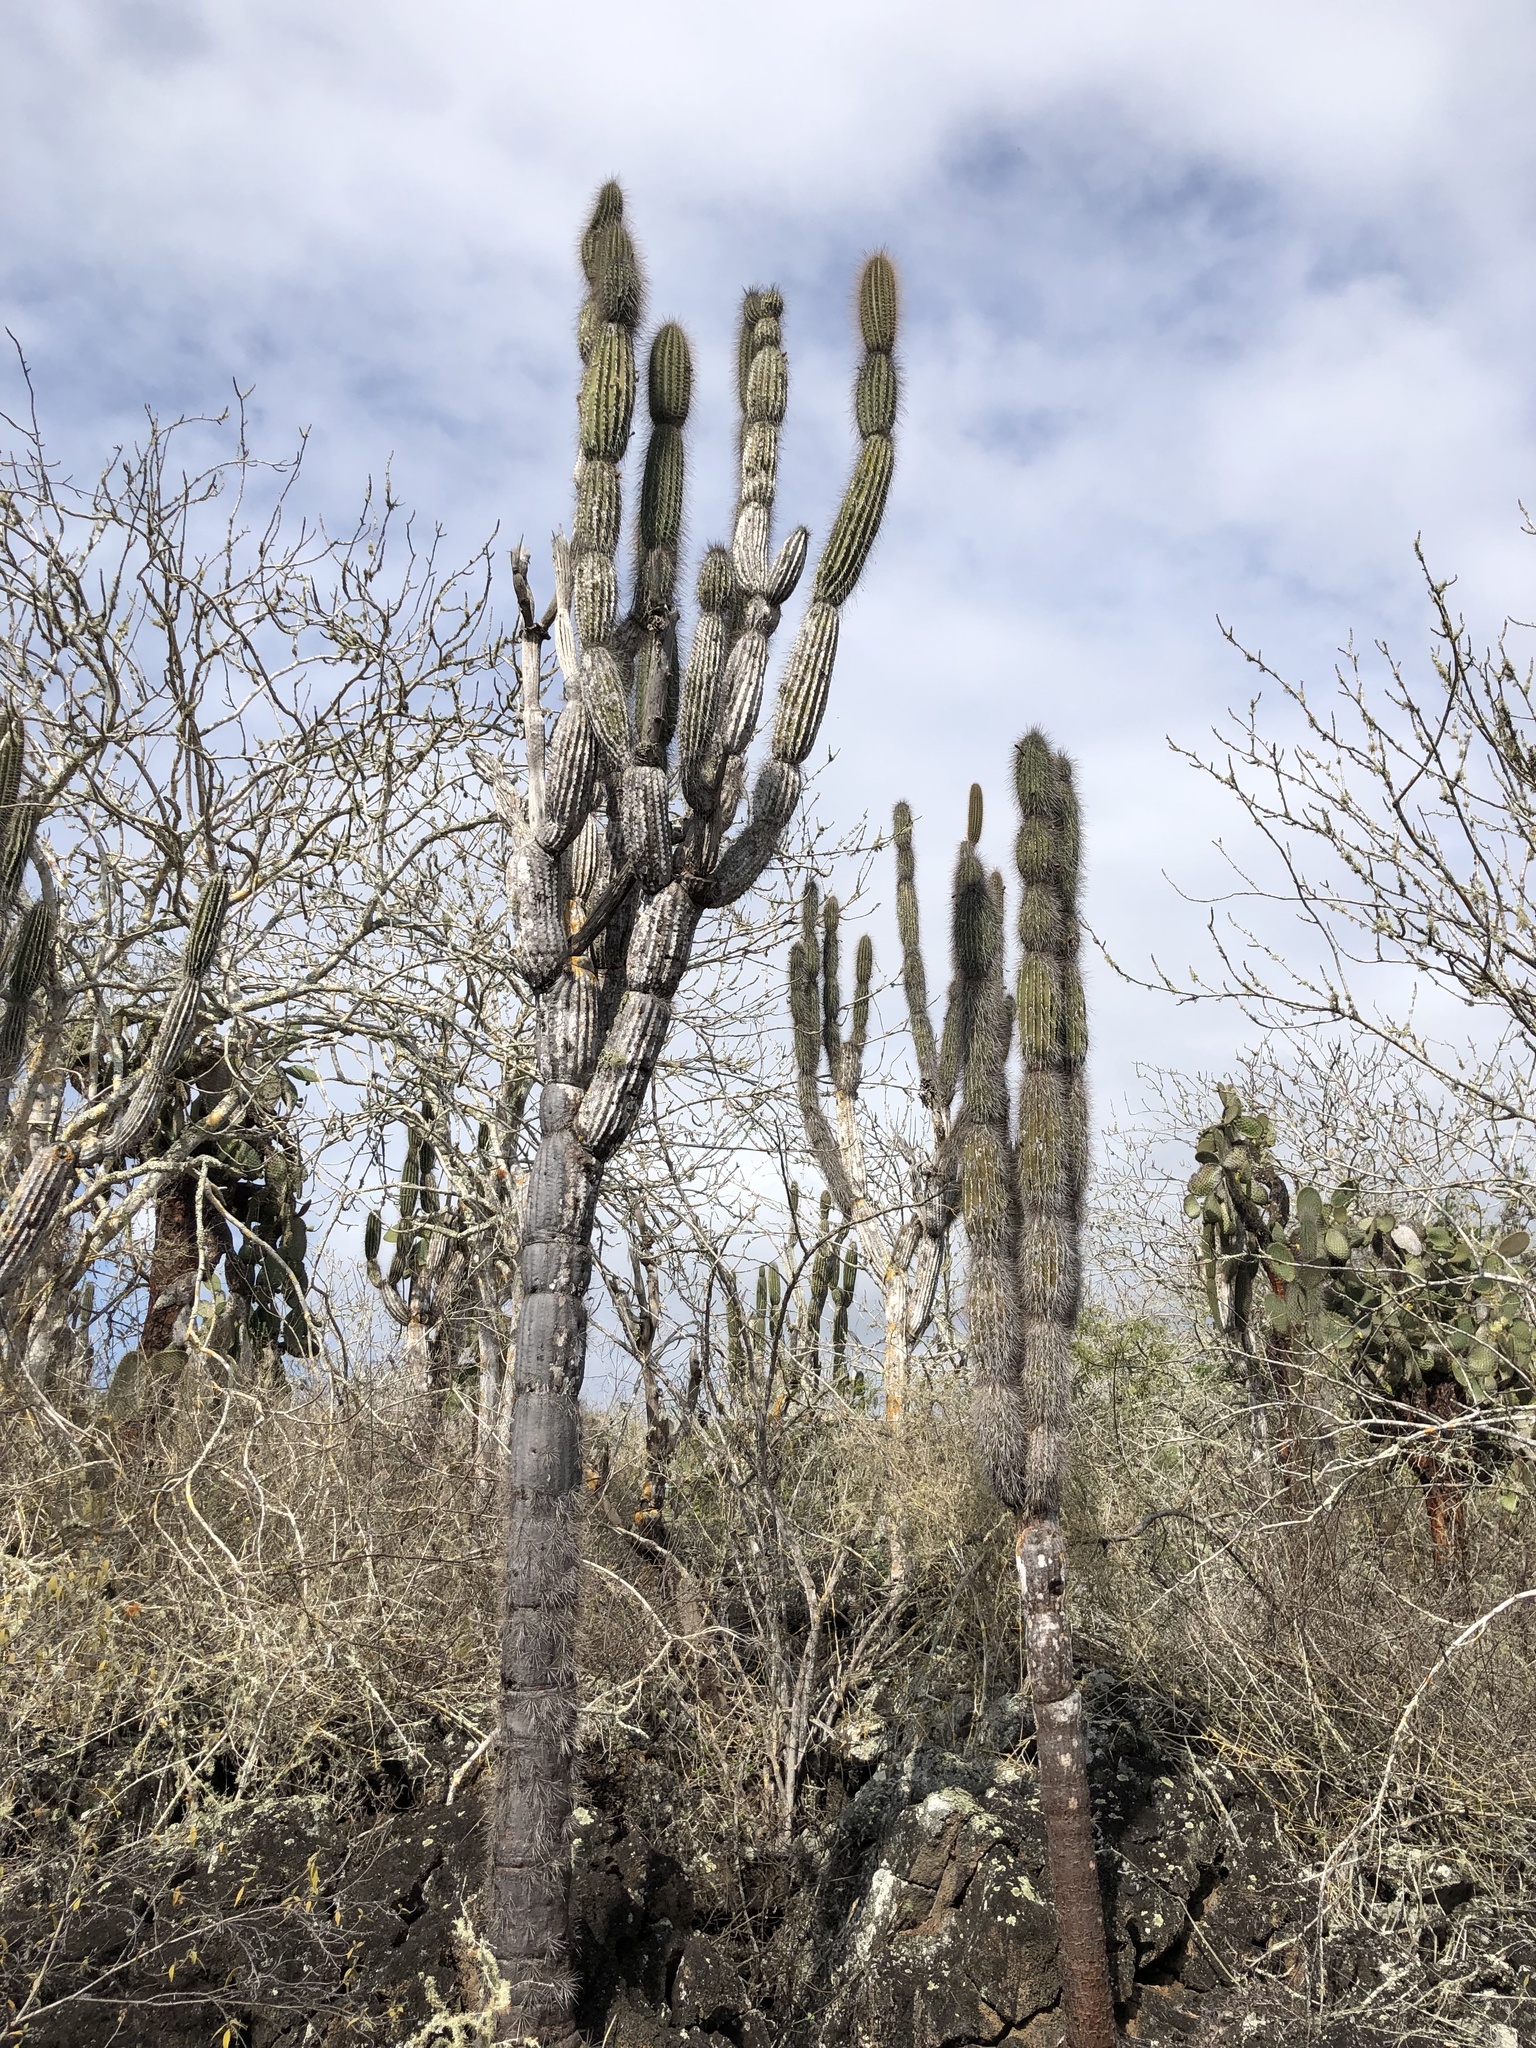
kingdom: Plantae
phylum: Tracheophyta
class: Magnoliopsida
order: Caryophyllales
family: Cactaceae
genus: Jasminocereus
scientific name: Jasminocereus thouarsii
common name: Candelabra cactus
